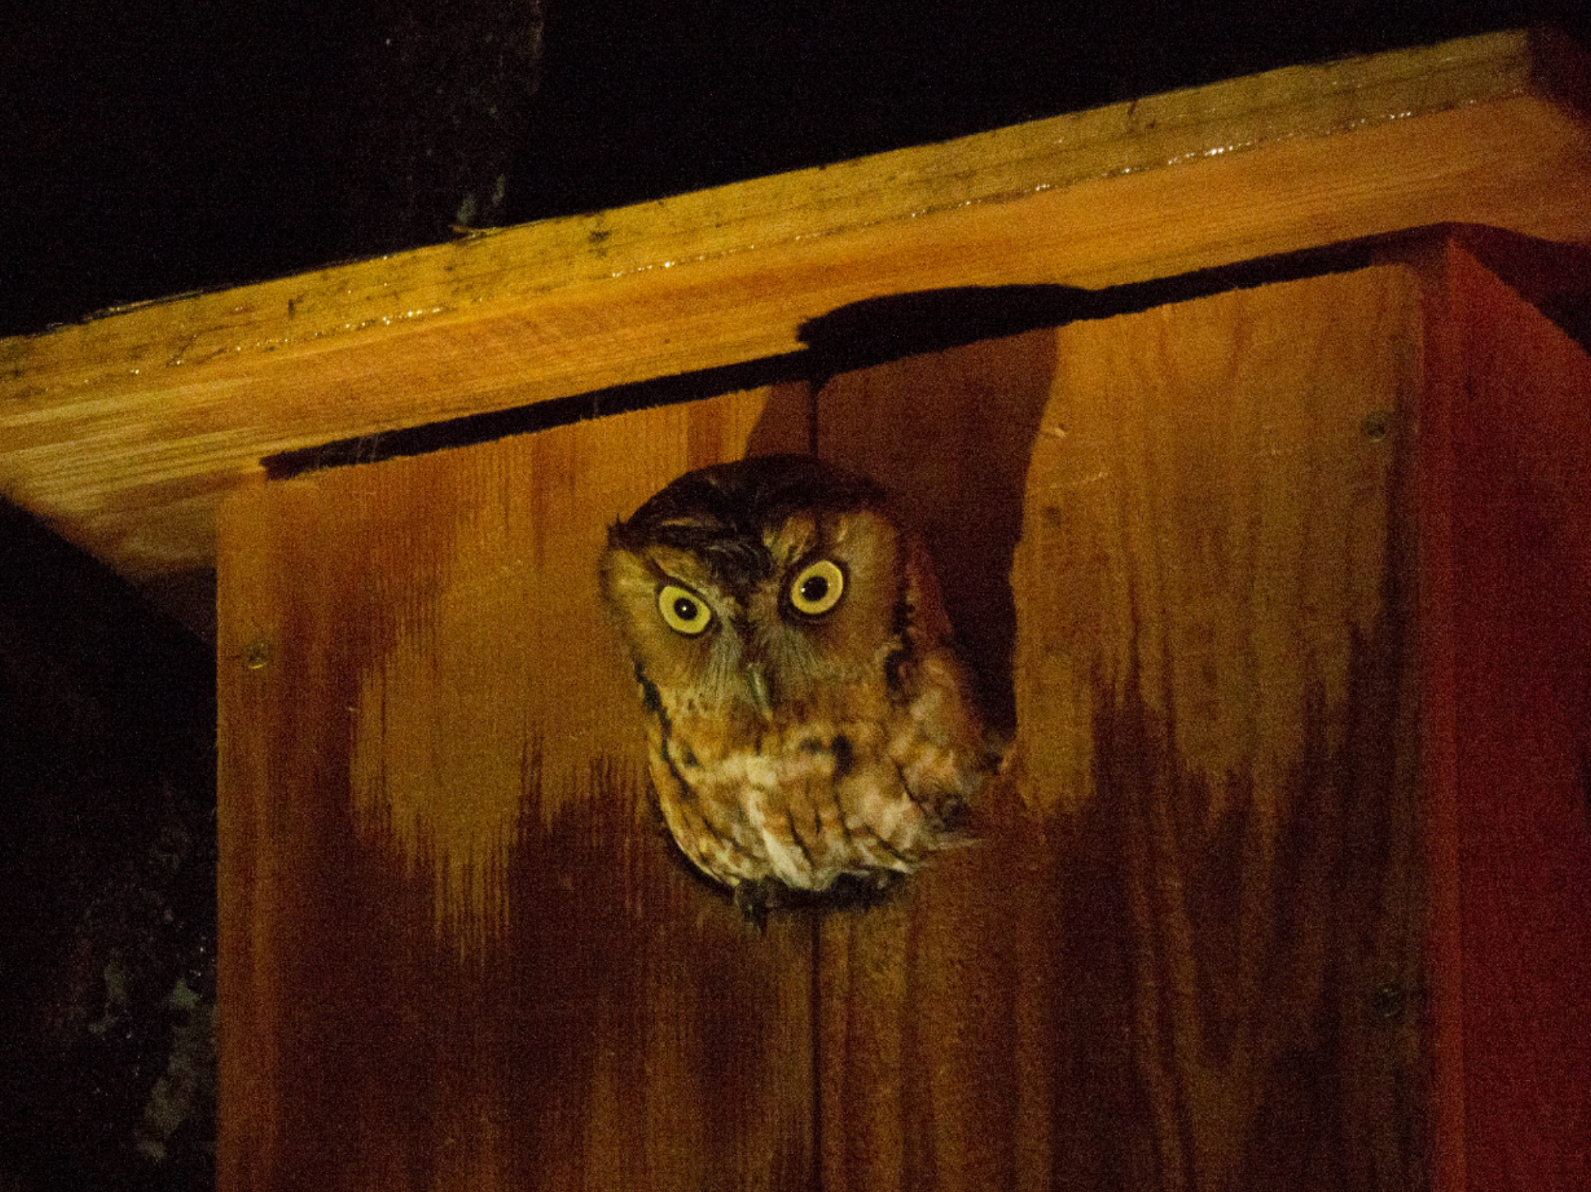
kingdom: Animalia
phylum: Chordata
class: Aves
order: Strigiformes
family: Strigidae
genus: Megascops
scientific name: Megascops asio
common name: Eastern screech-owl
